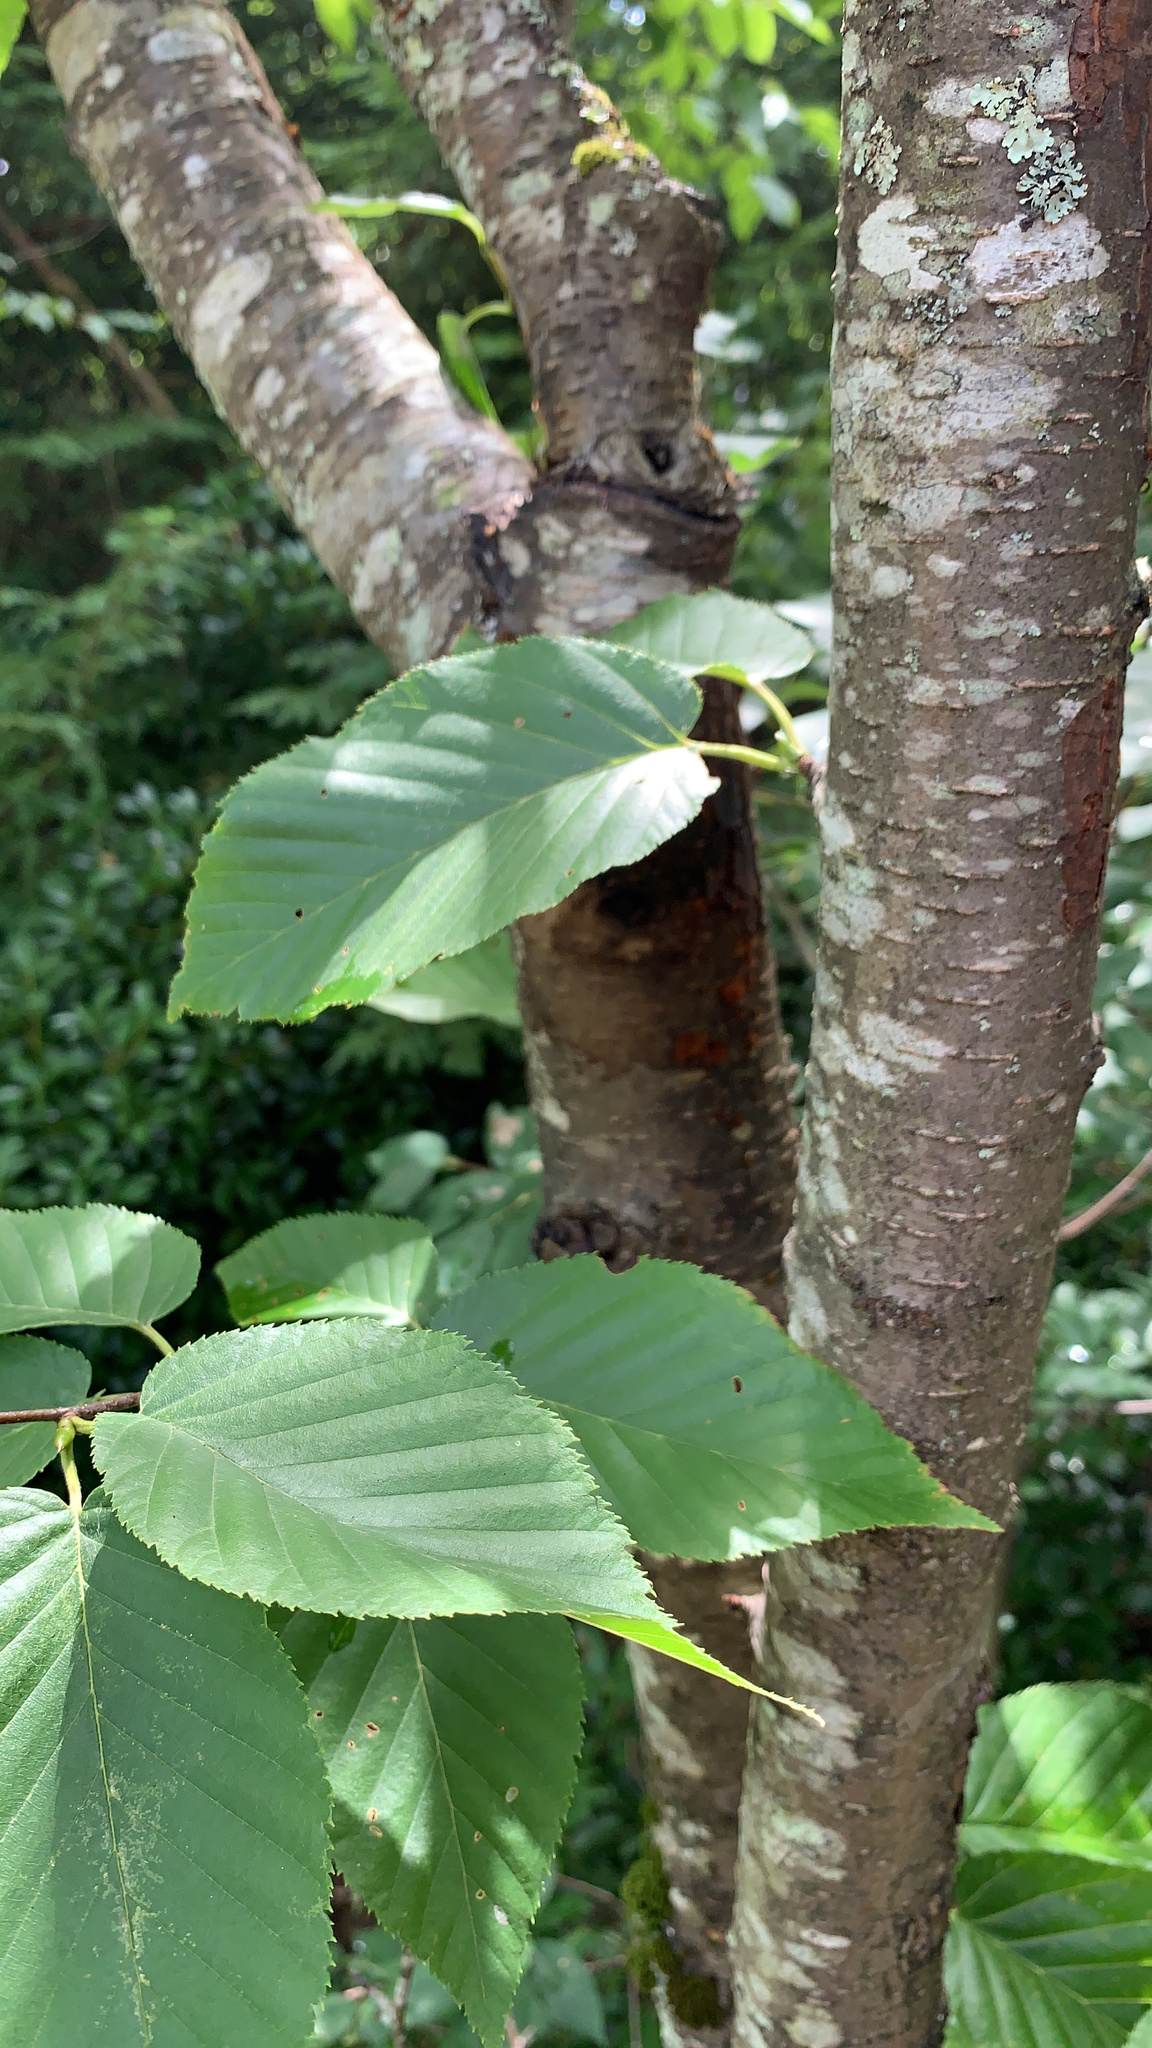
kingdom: Plantae
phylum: Tracheophyta
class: Magnoliopsida
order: Fagales
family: Betulaceae
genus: Betula
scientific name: Betula lenta
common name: Black birch
